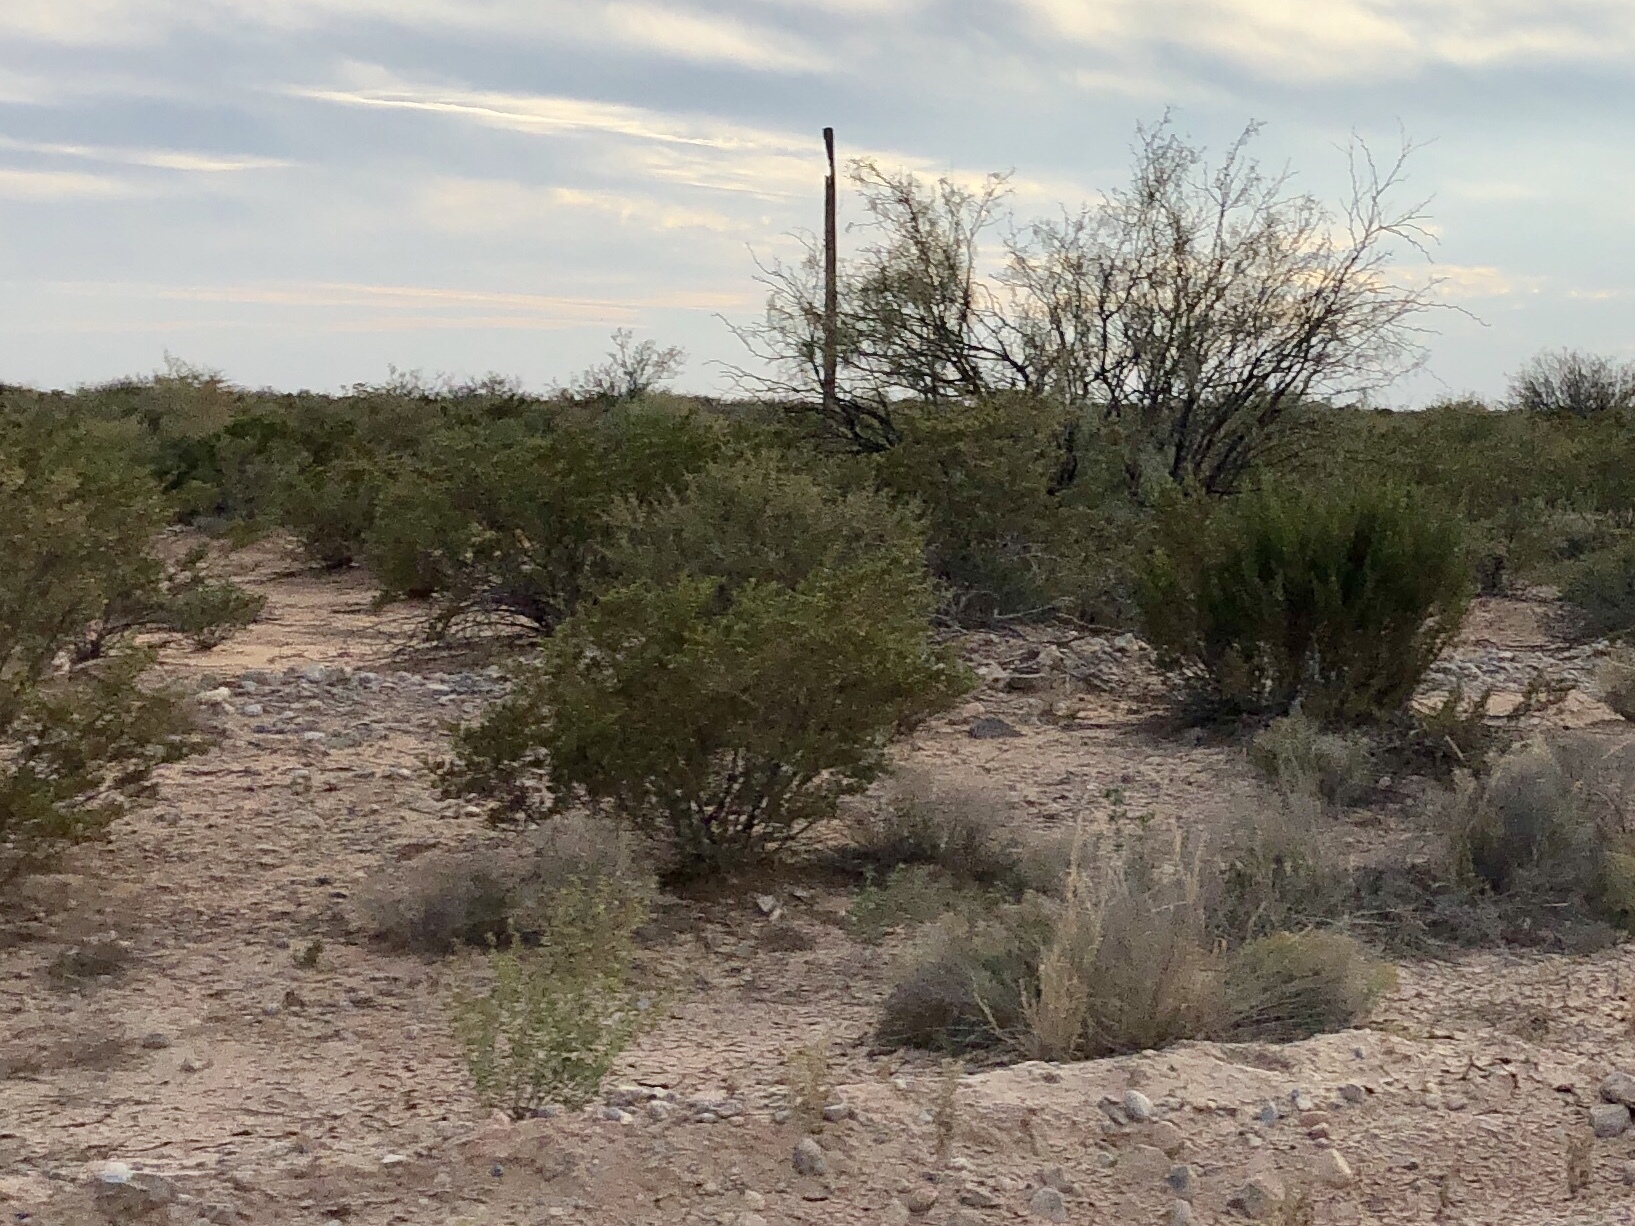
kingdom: Plantae
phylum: Tracheophyta
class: Magnoliopsida
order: Zygophyllales
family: Zygophyllaceae
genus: Larrea
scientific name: Larrea tridentata
